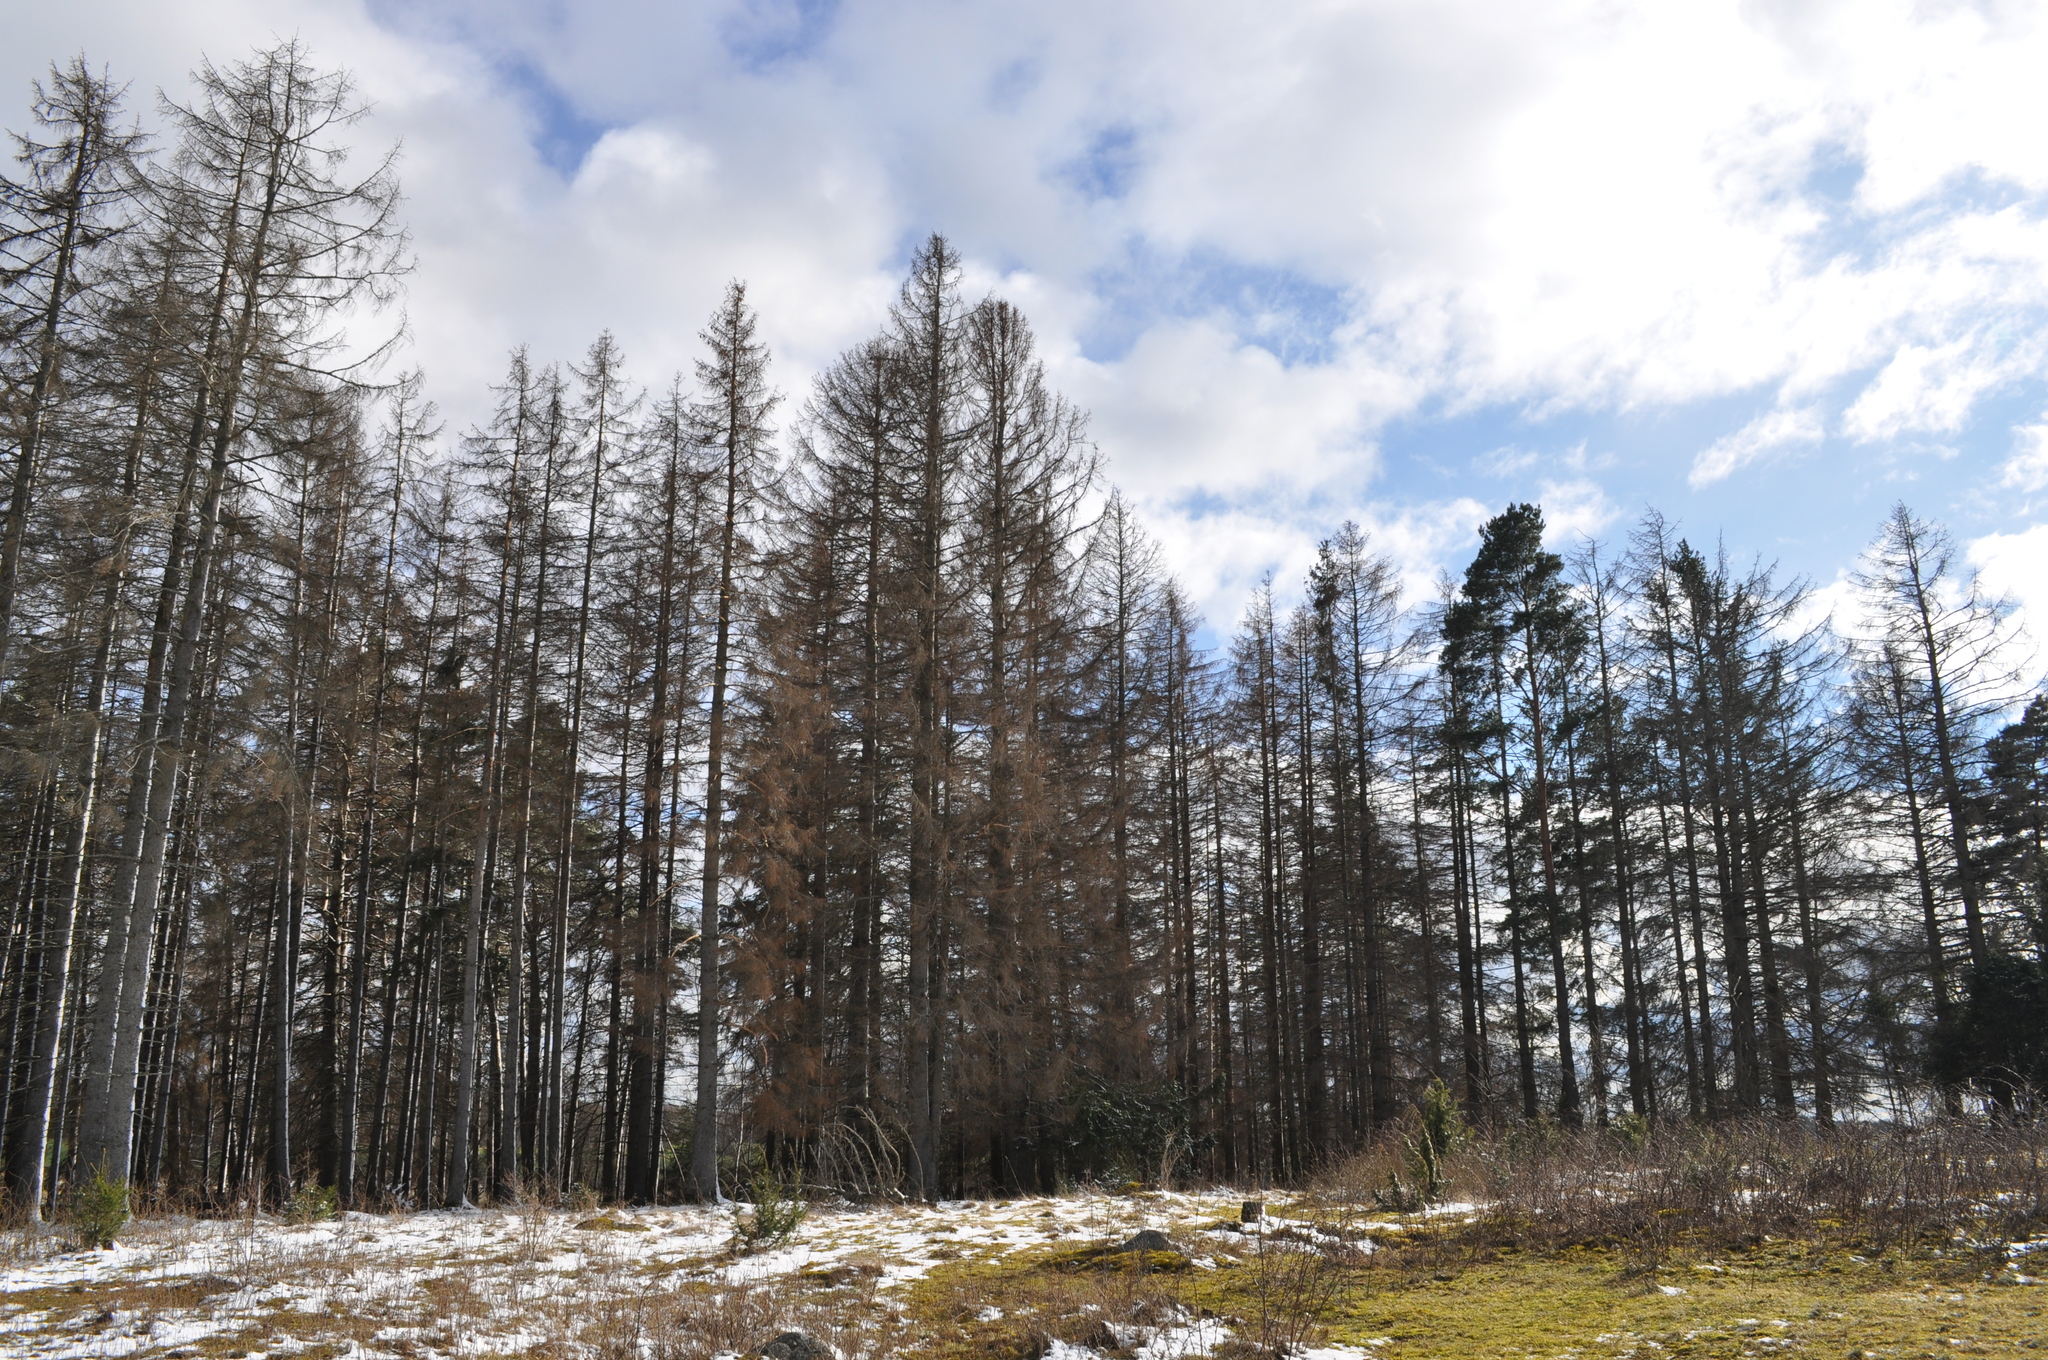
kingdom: Plantae
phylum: Tracheophyta
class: Pinopsida
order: Pinales
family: Pinaceae
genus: Picea
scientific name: Picea abies
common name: Norway spruce
